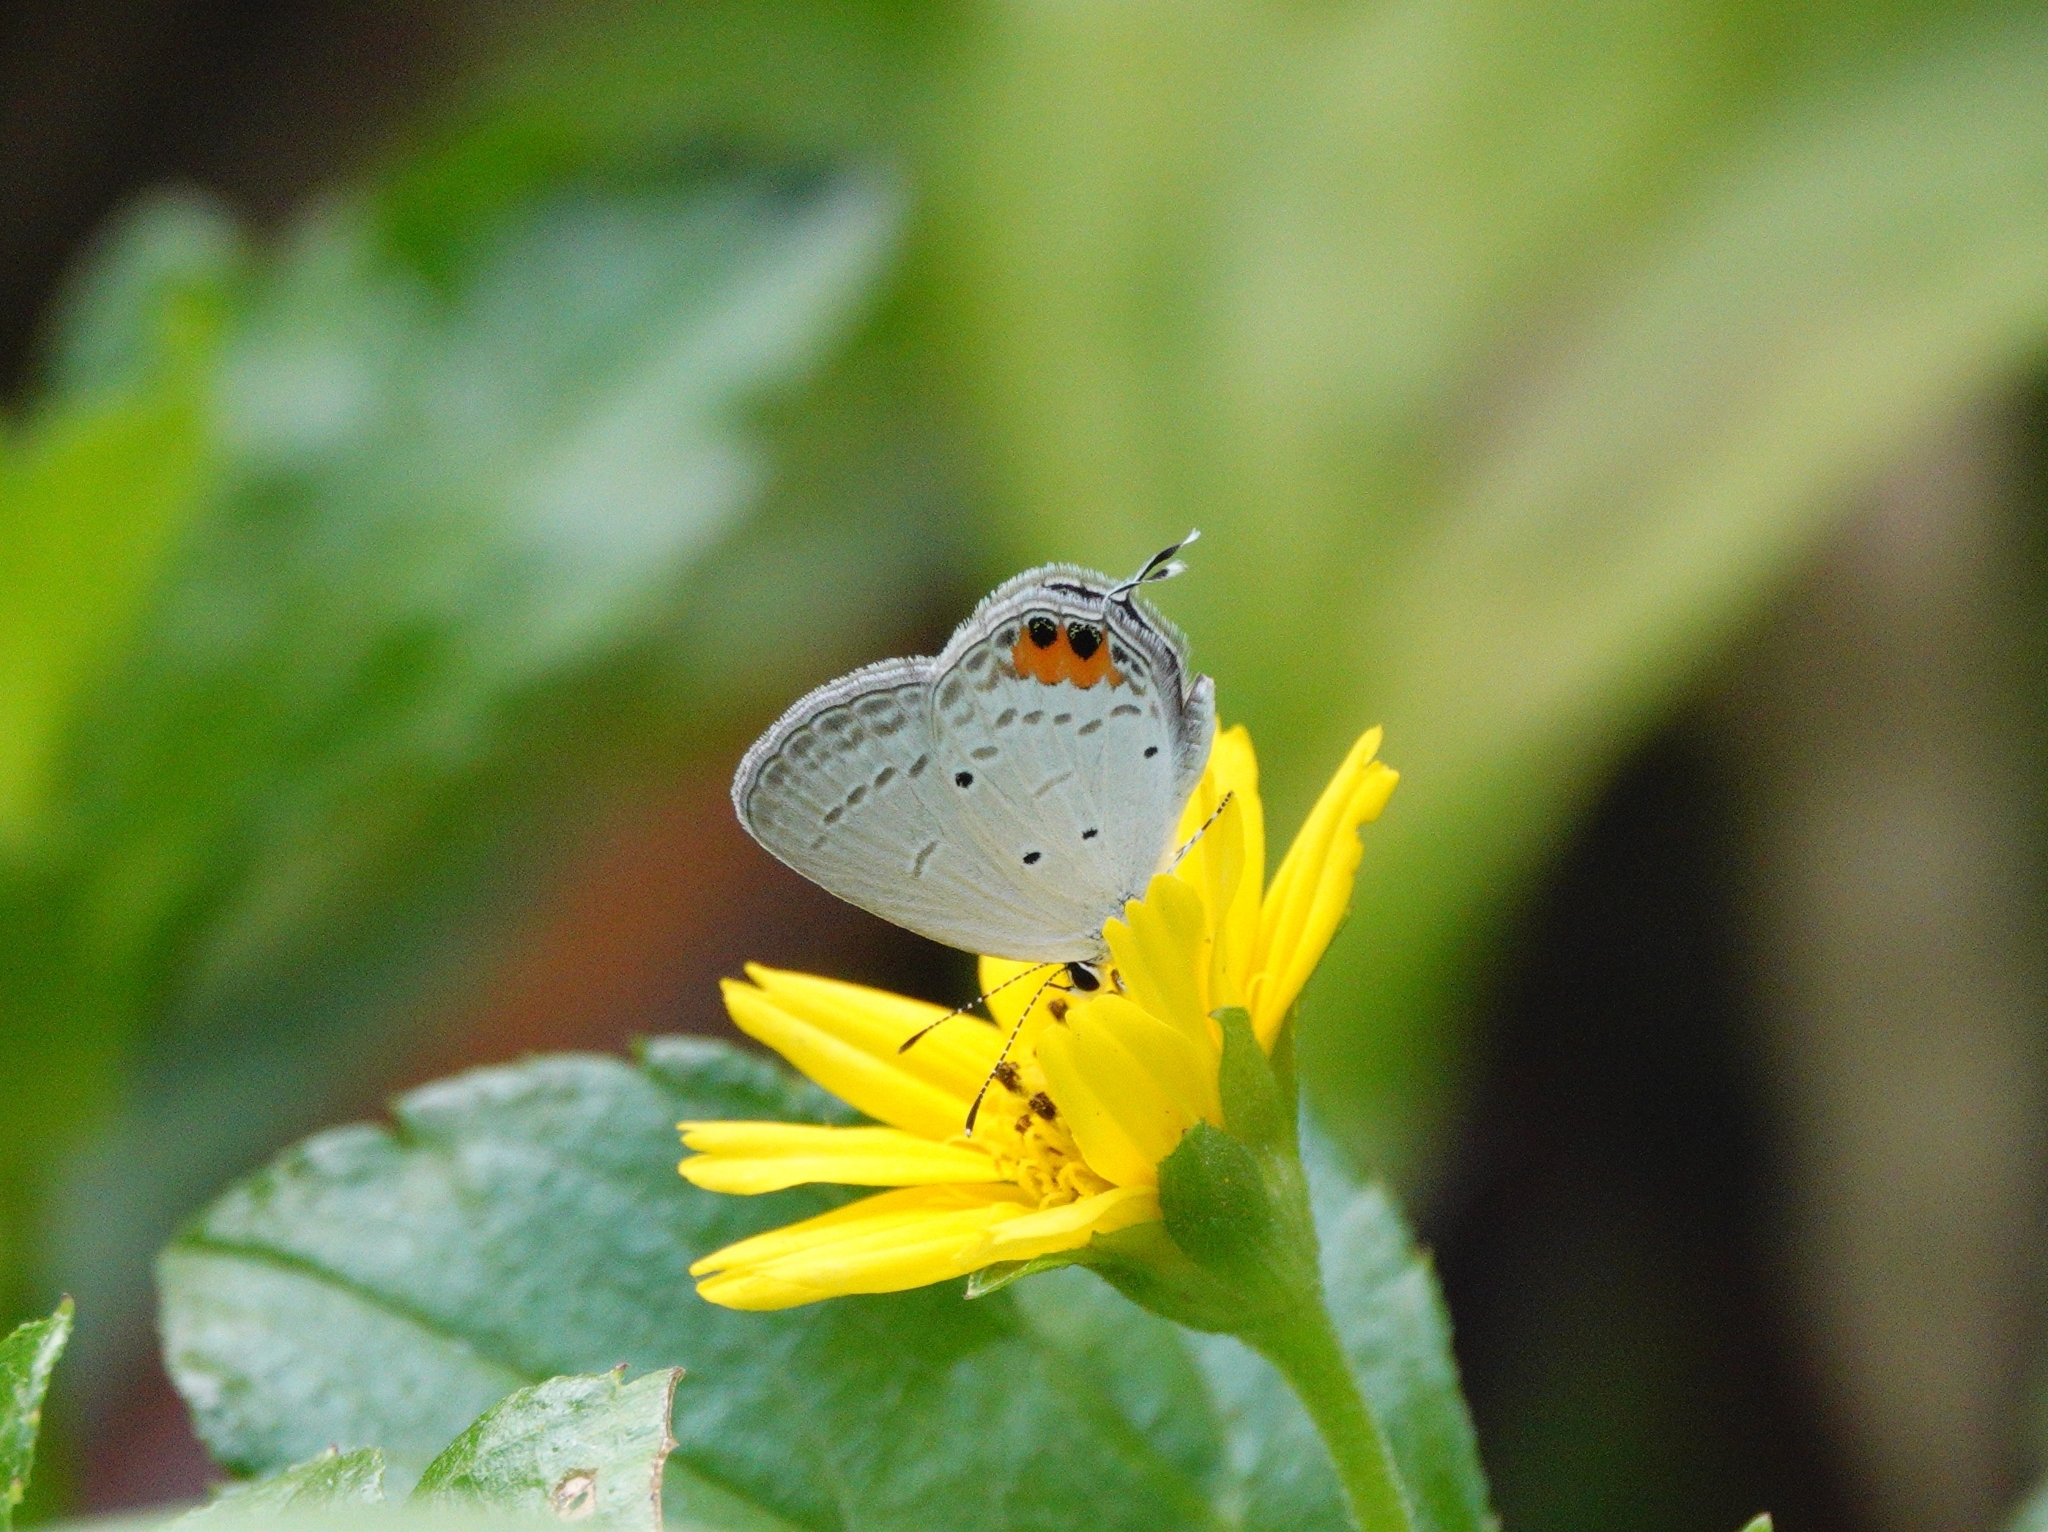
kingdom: Animalia
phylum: Arthropoda
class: Insecta
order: Lepidoptera
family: Lycaenidae
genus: Everes
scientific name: Everes lacturnus
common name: Orange-tipped pea-blue
